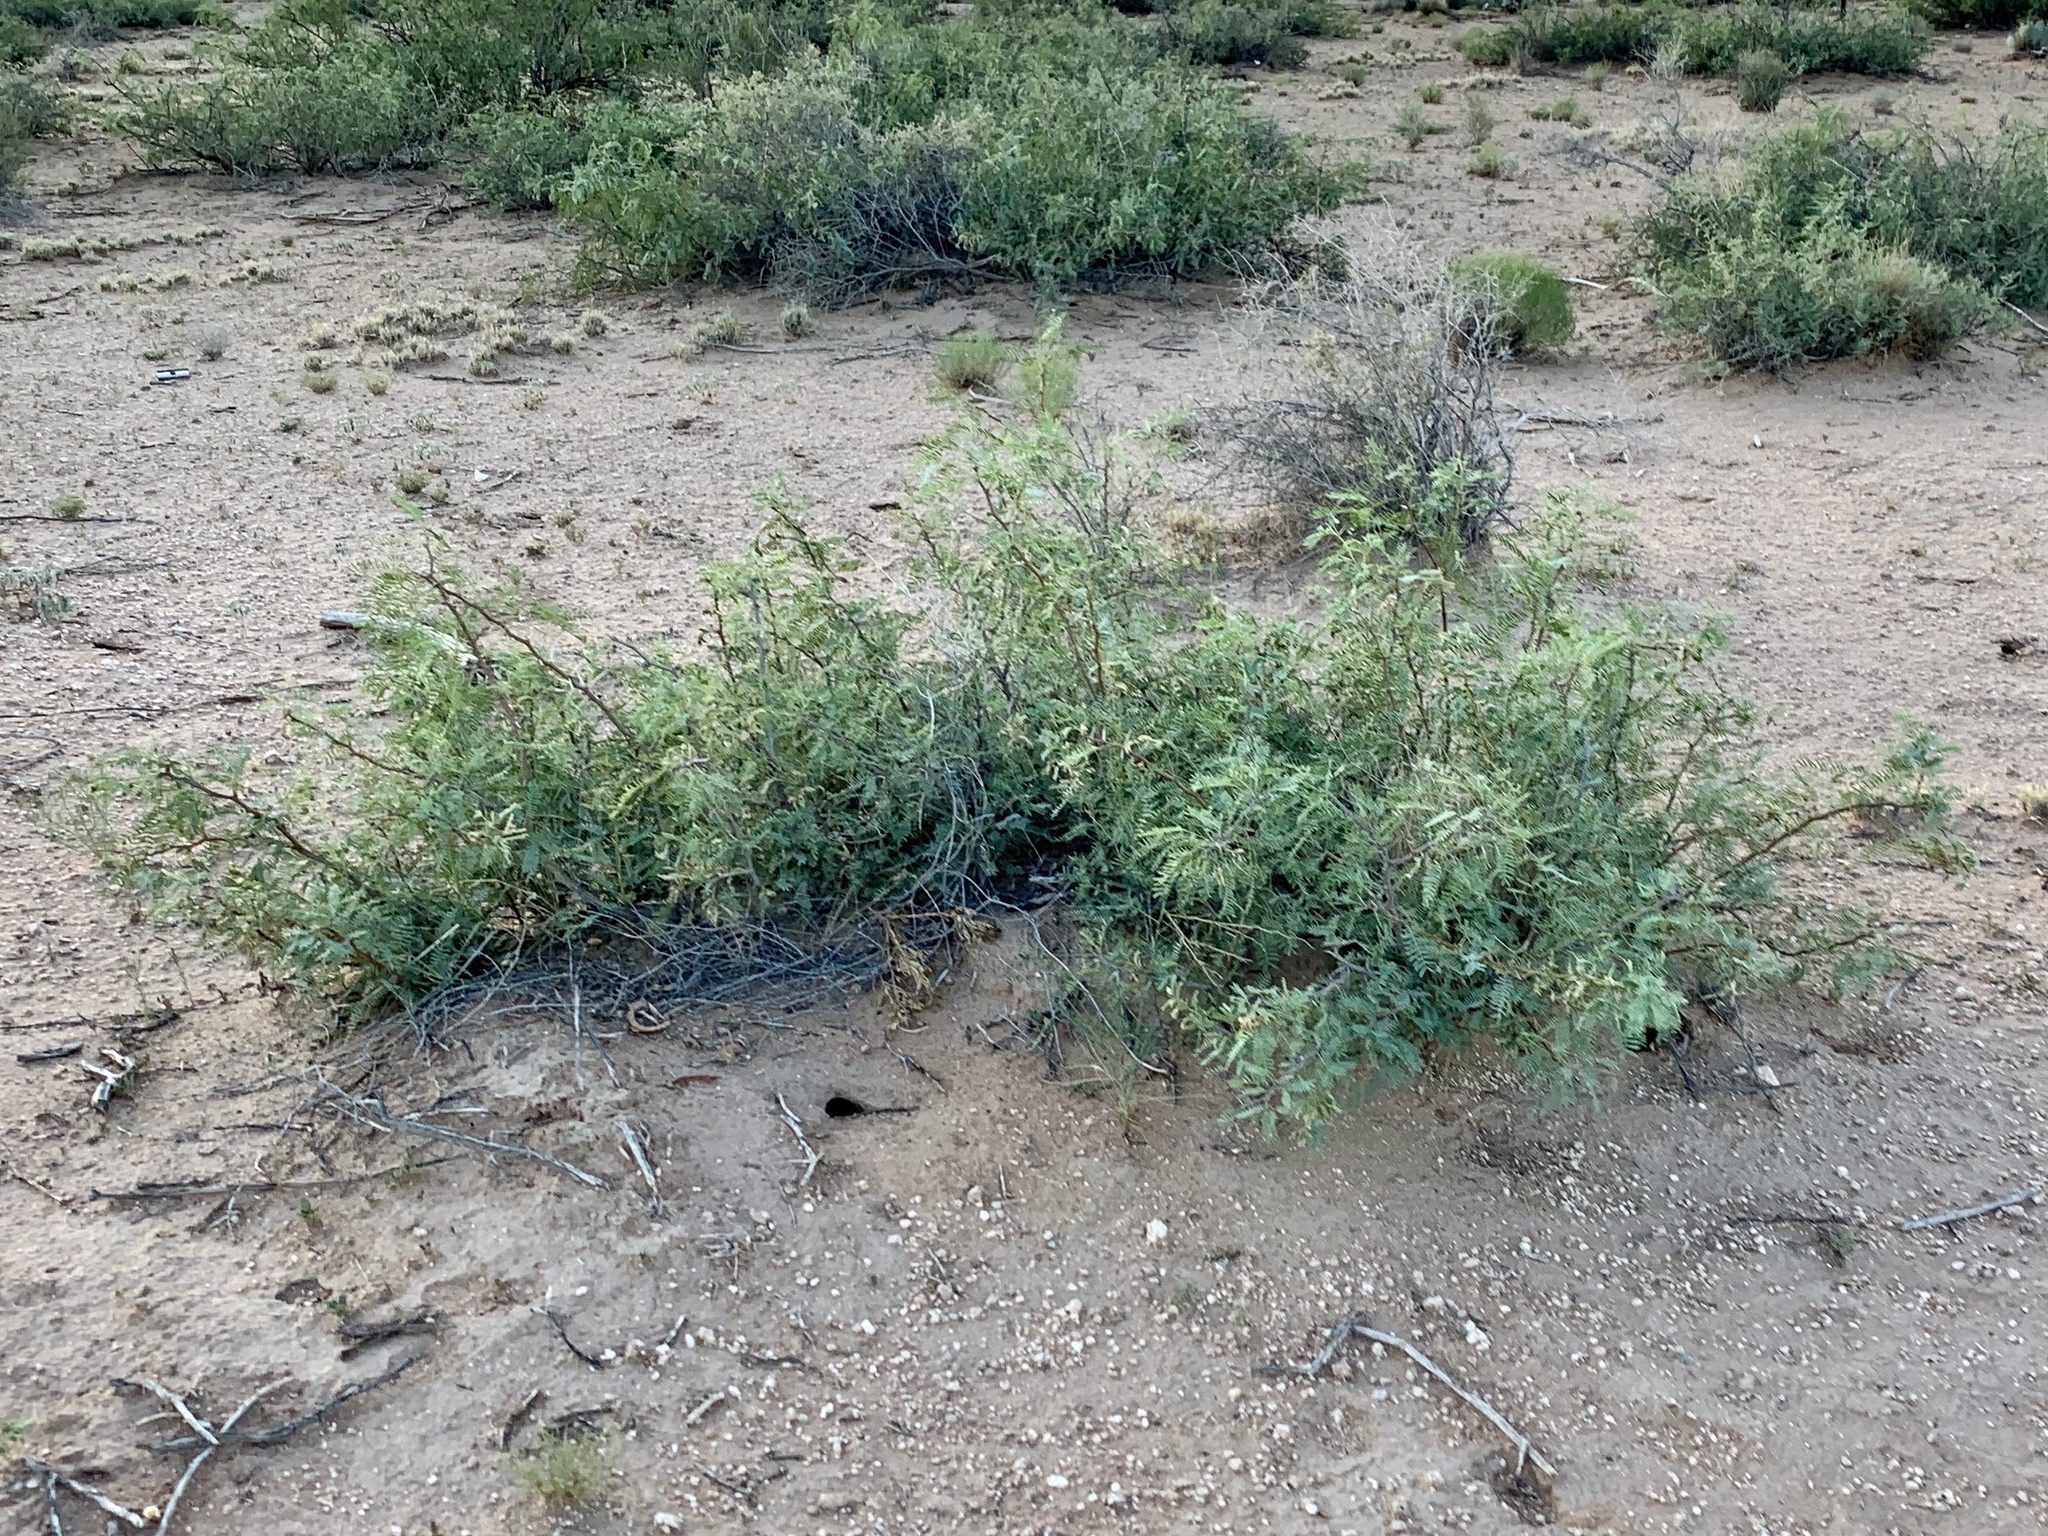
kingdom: Plantae
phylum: Tracheophyta
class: Magnoliopsida
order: Fabales
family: Fabaceae
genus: Prosopis
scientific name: Prosopis glandulosa
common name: Honey mesquite
